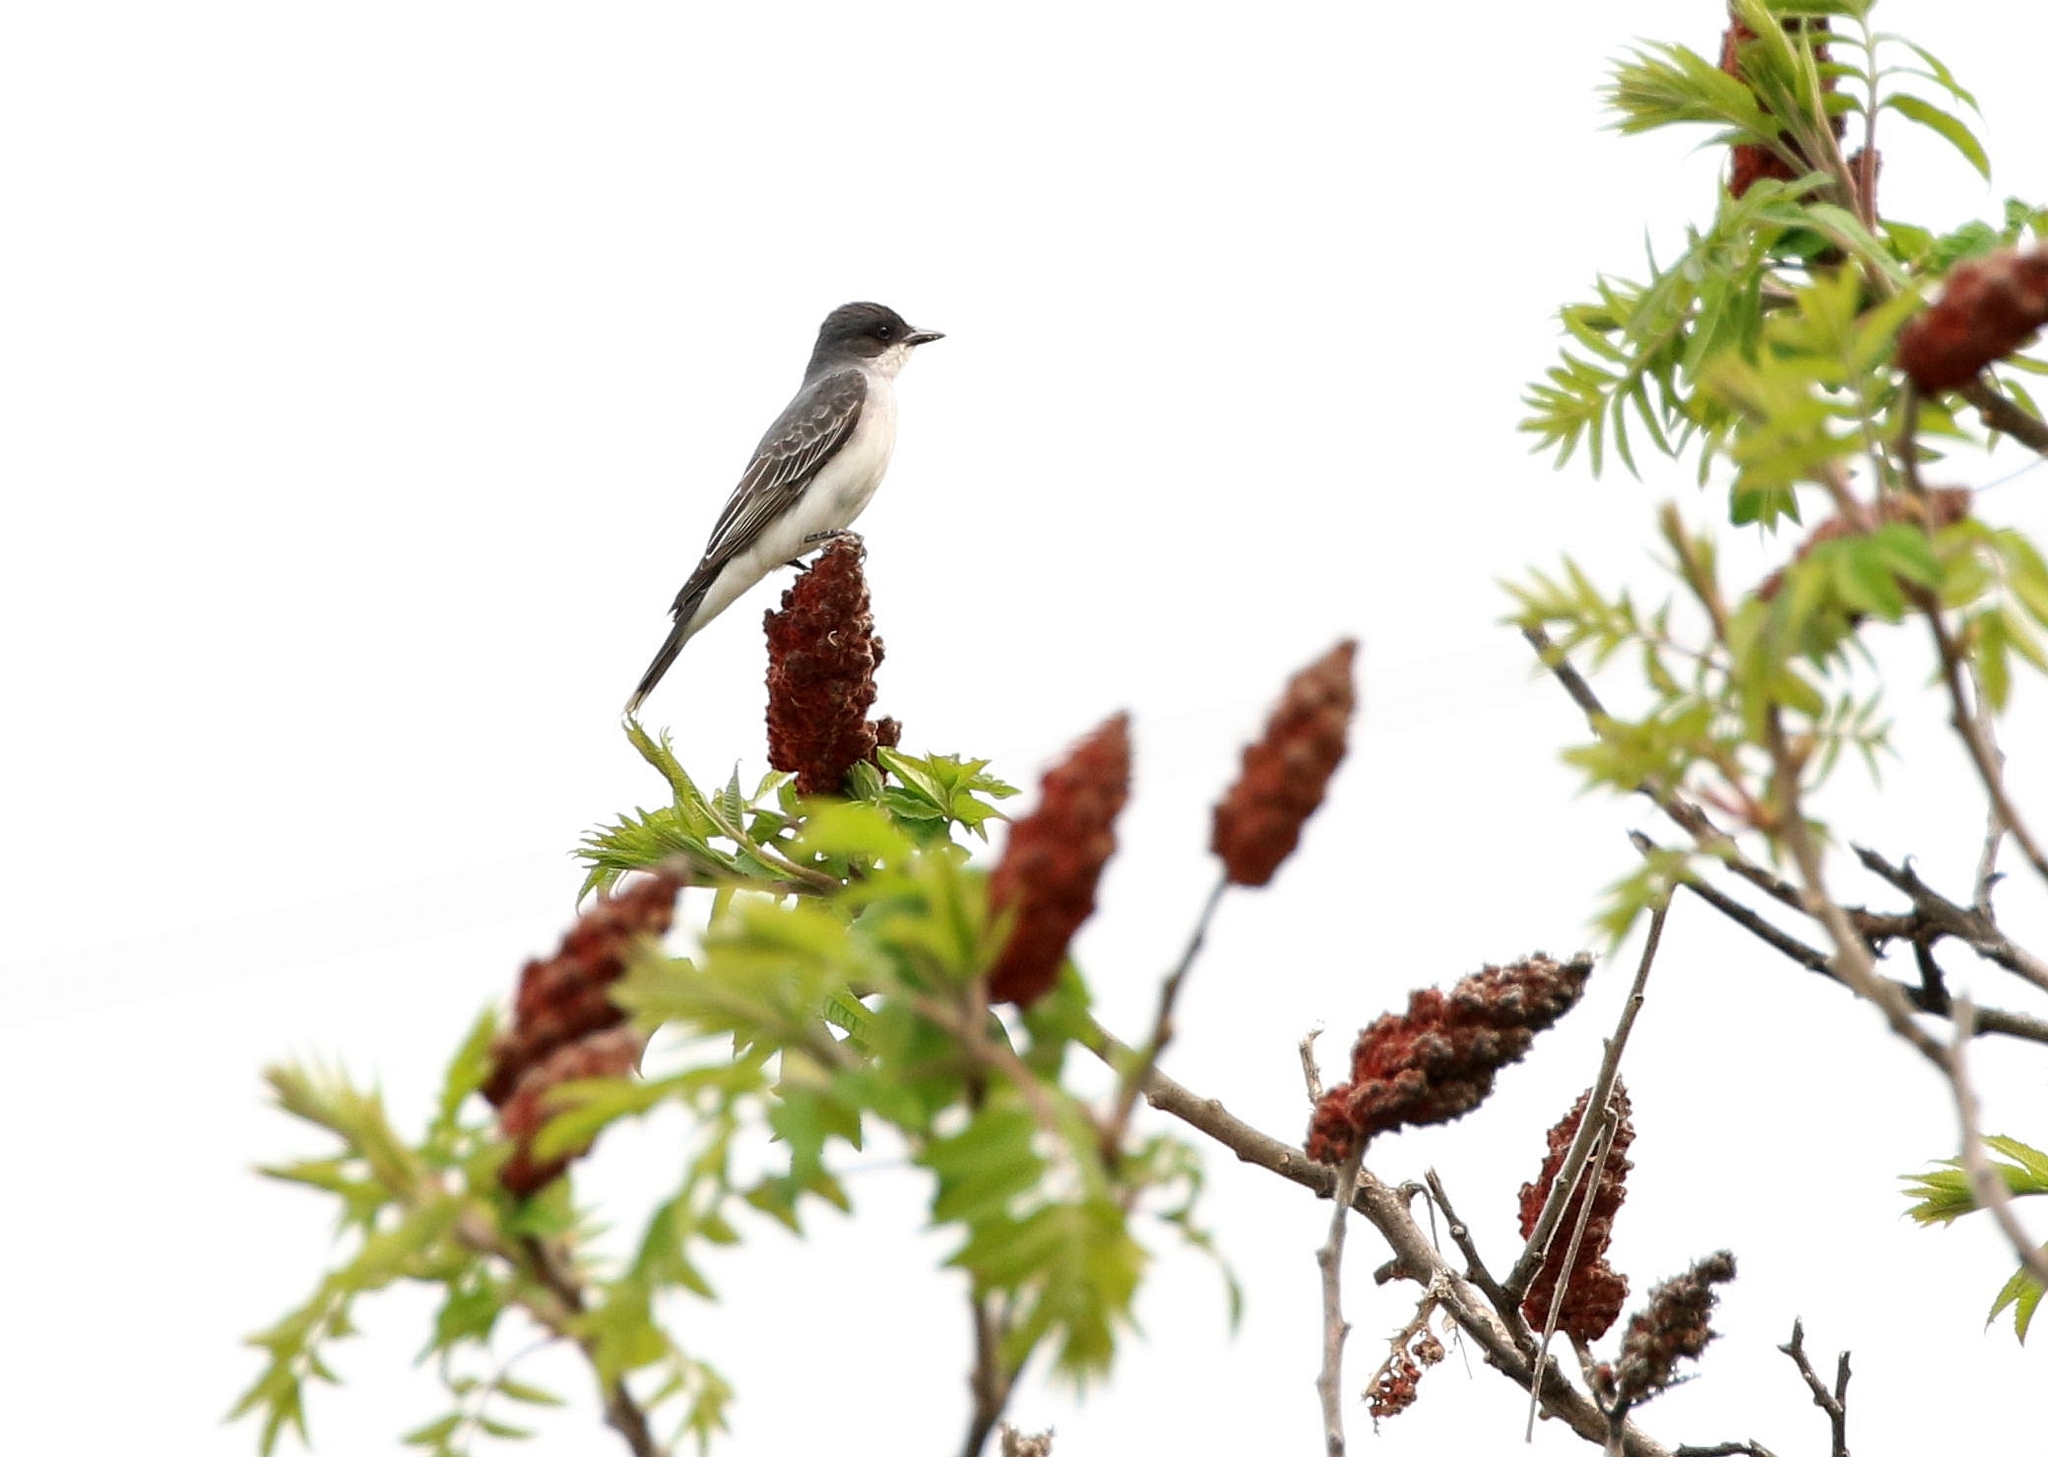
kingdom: Animalia
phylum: Chordata
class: Aves
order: Passeriformes
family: Tyrannidae
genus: Tyrannus
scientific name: Tyrannus tyrannus
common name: Eastern kingbird
